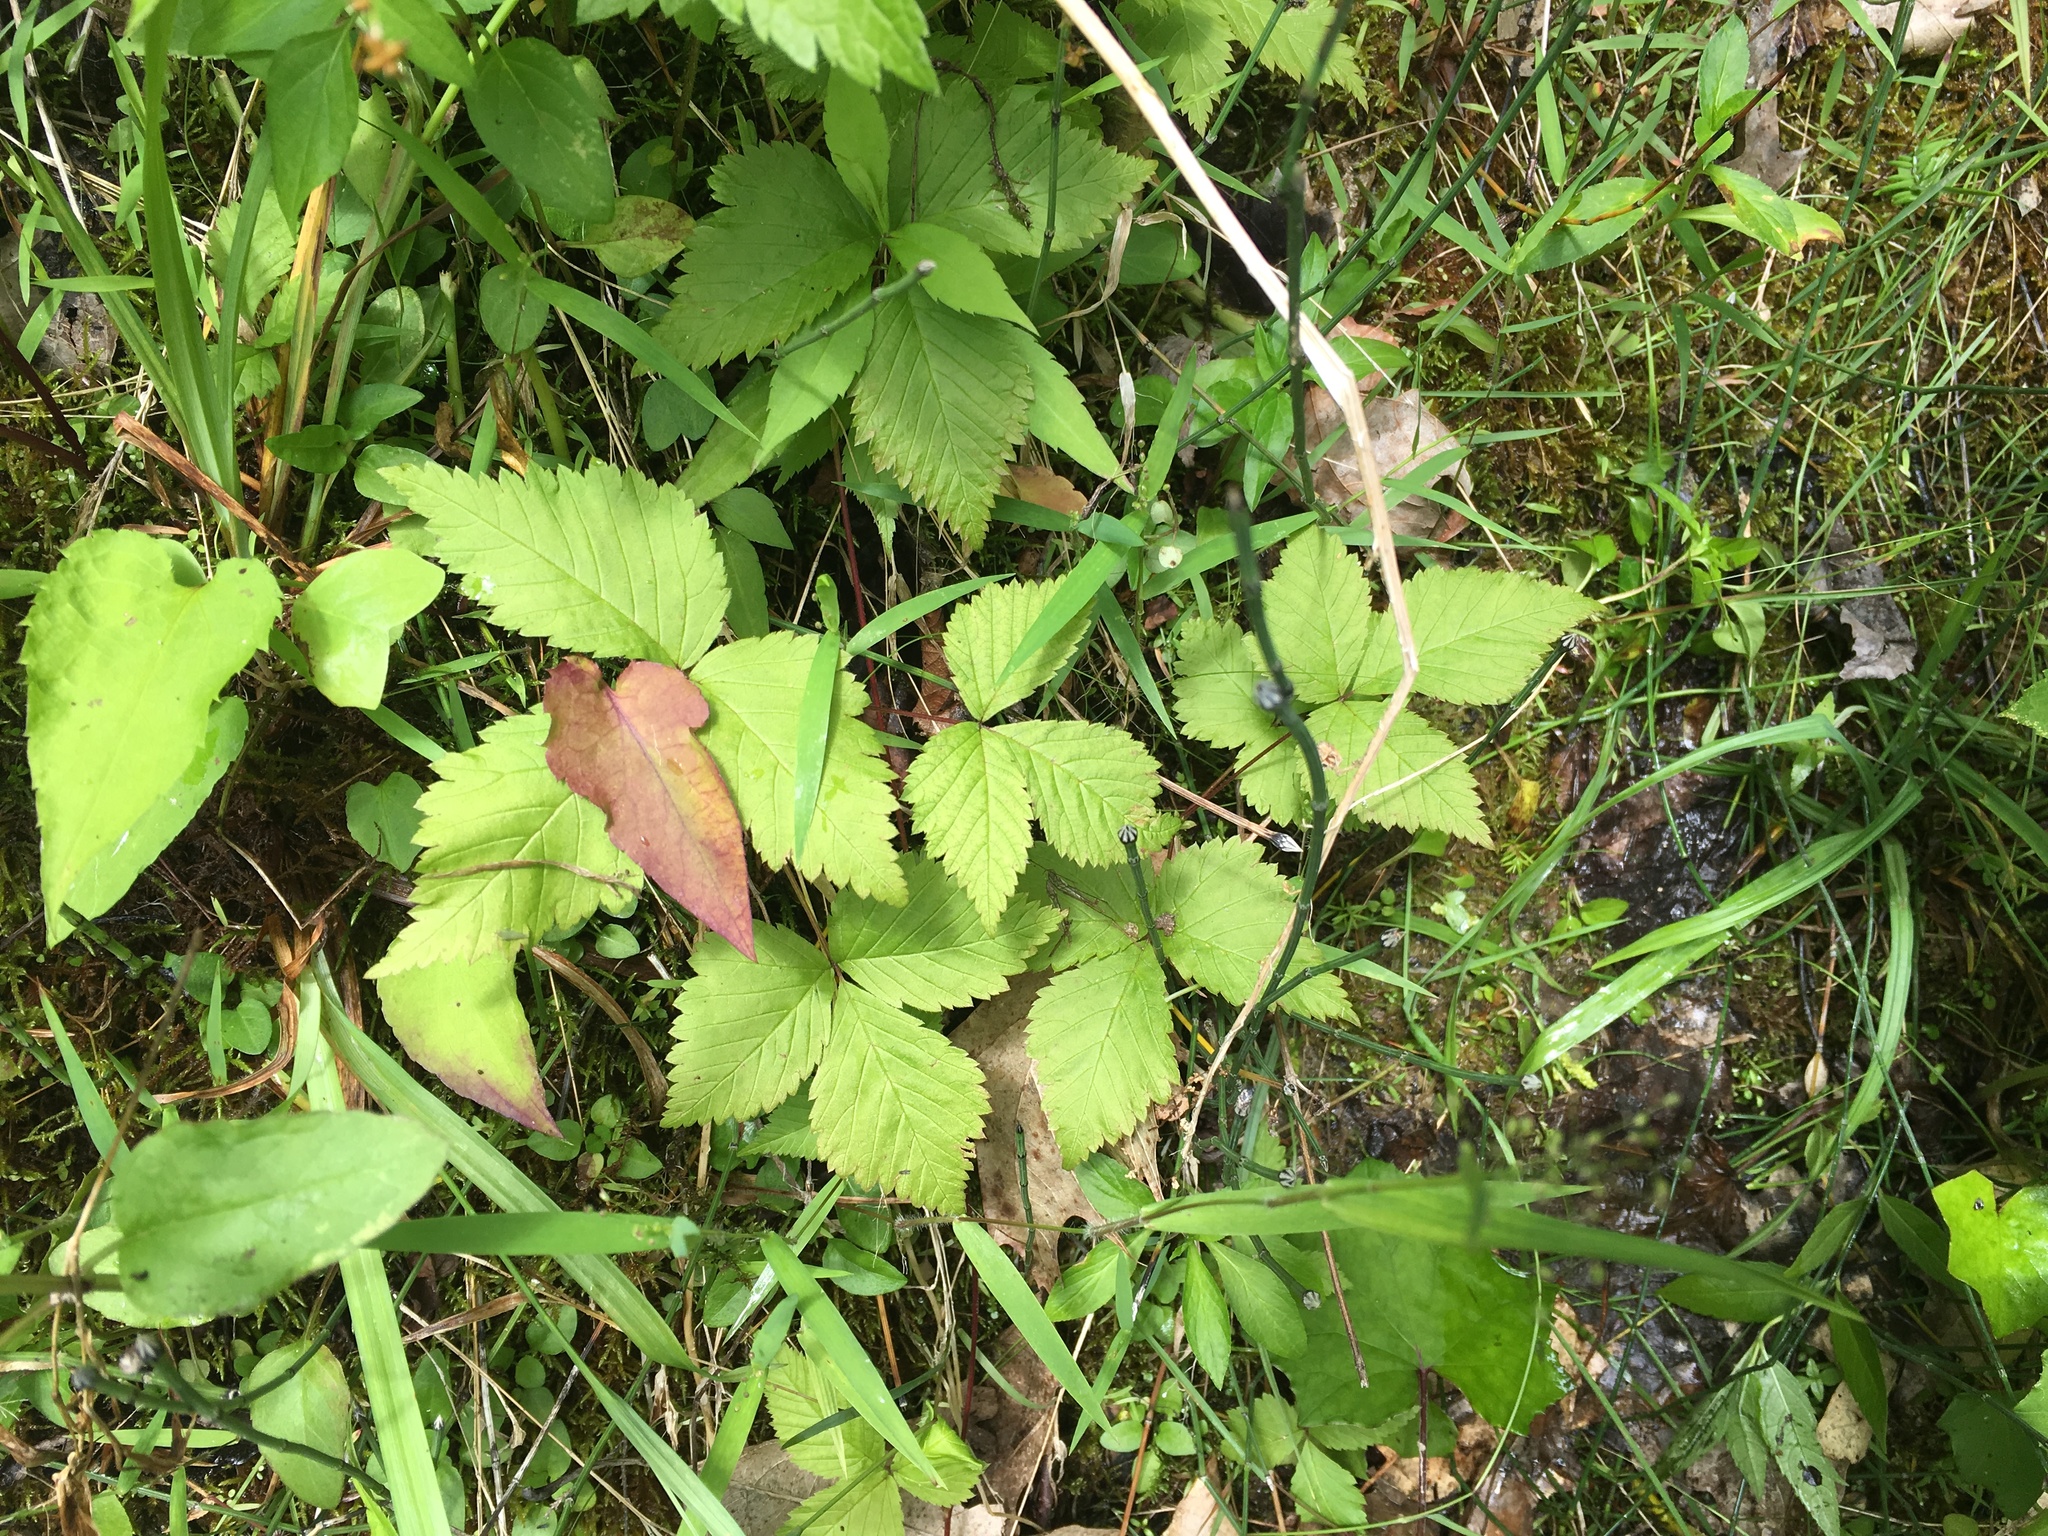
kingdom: Plantae
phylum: Tracheophyta
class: Magnoliopsida
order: Rosales
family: Rosaceae
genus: Rubus
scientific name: Rubus pubescens
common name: Dwarf raspberry
